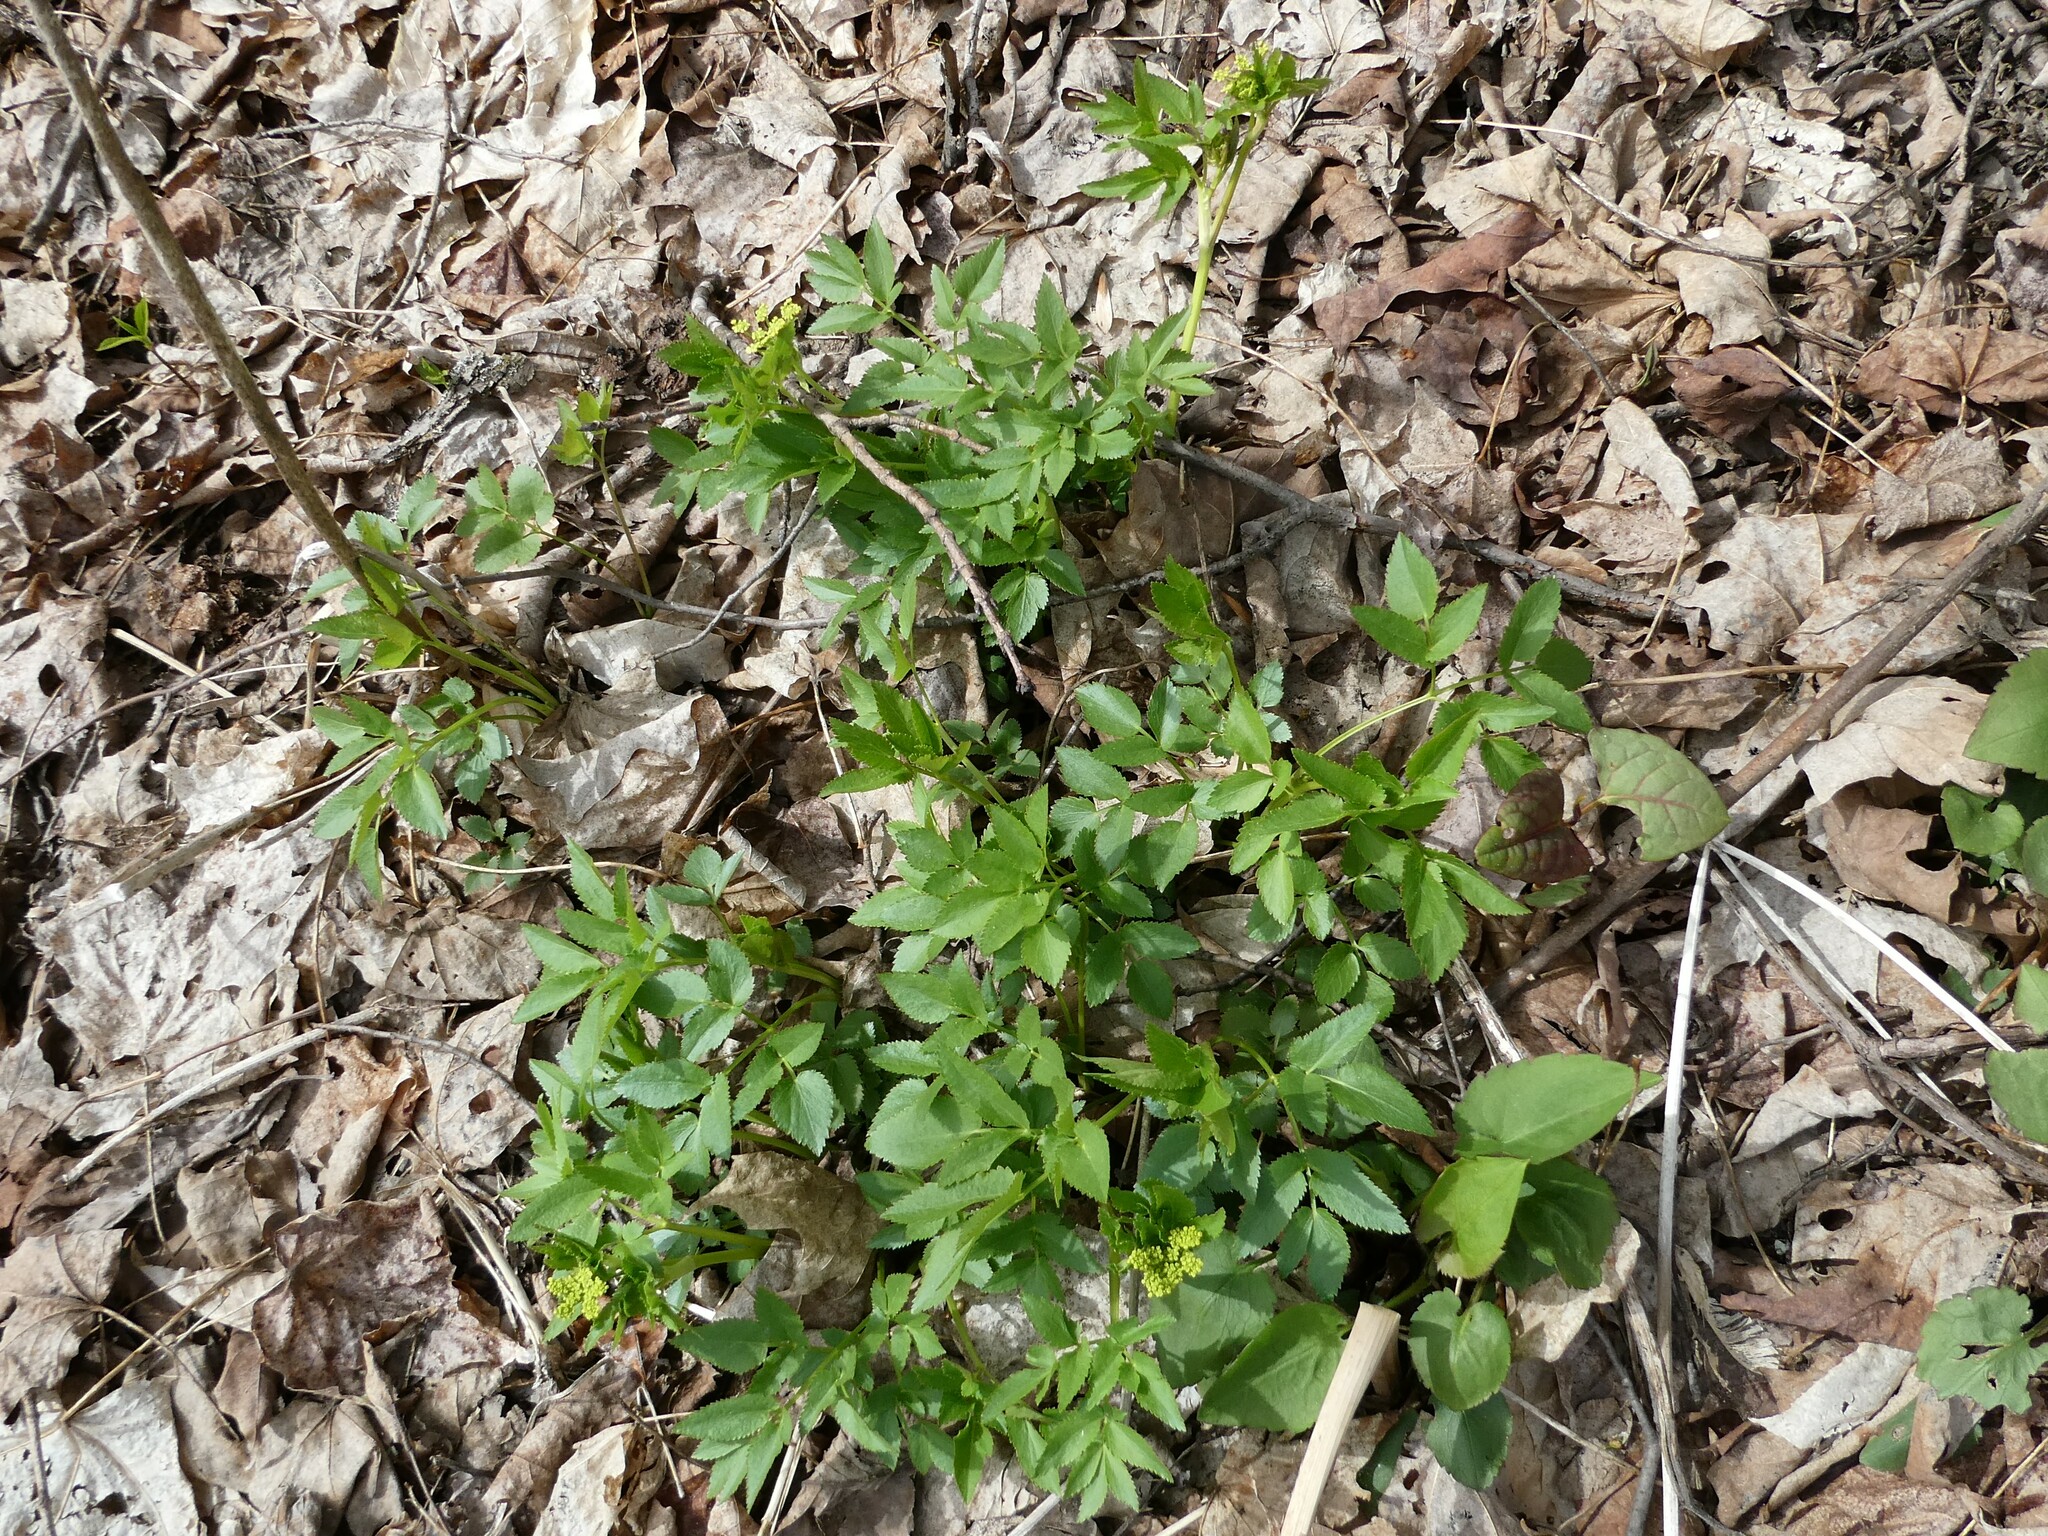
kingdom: Plantae
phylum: Tracheophyta
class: Magnoliopsida
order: Apiales
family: Apiaceae
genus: Zizia
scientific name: Zizia aurea
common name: Golden alexanders
